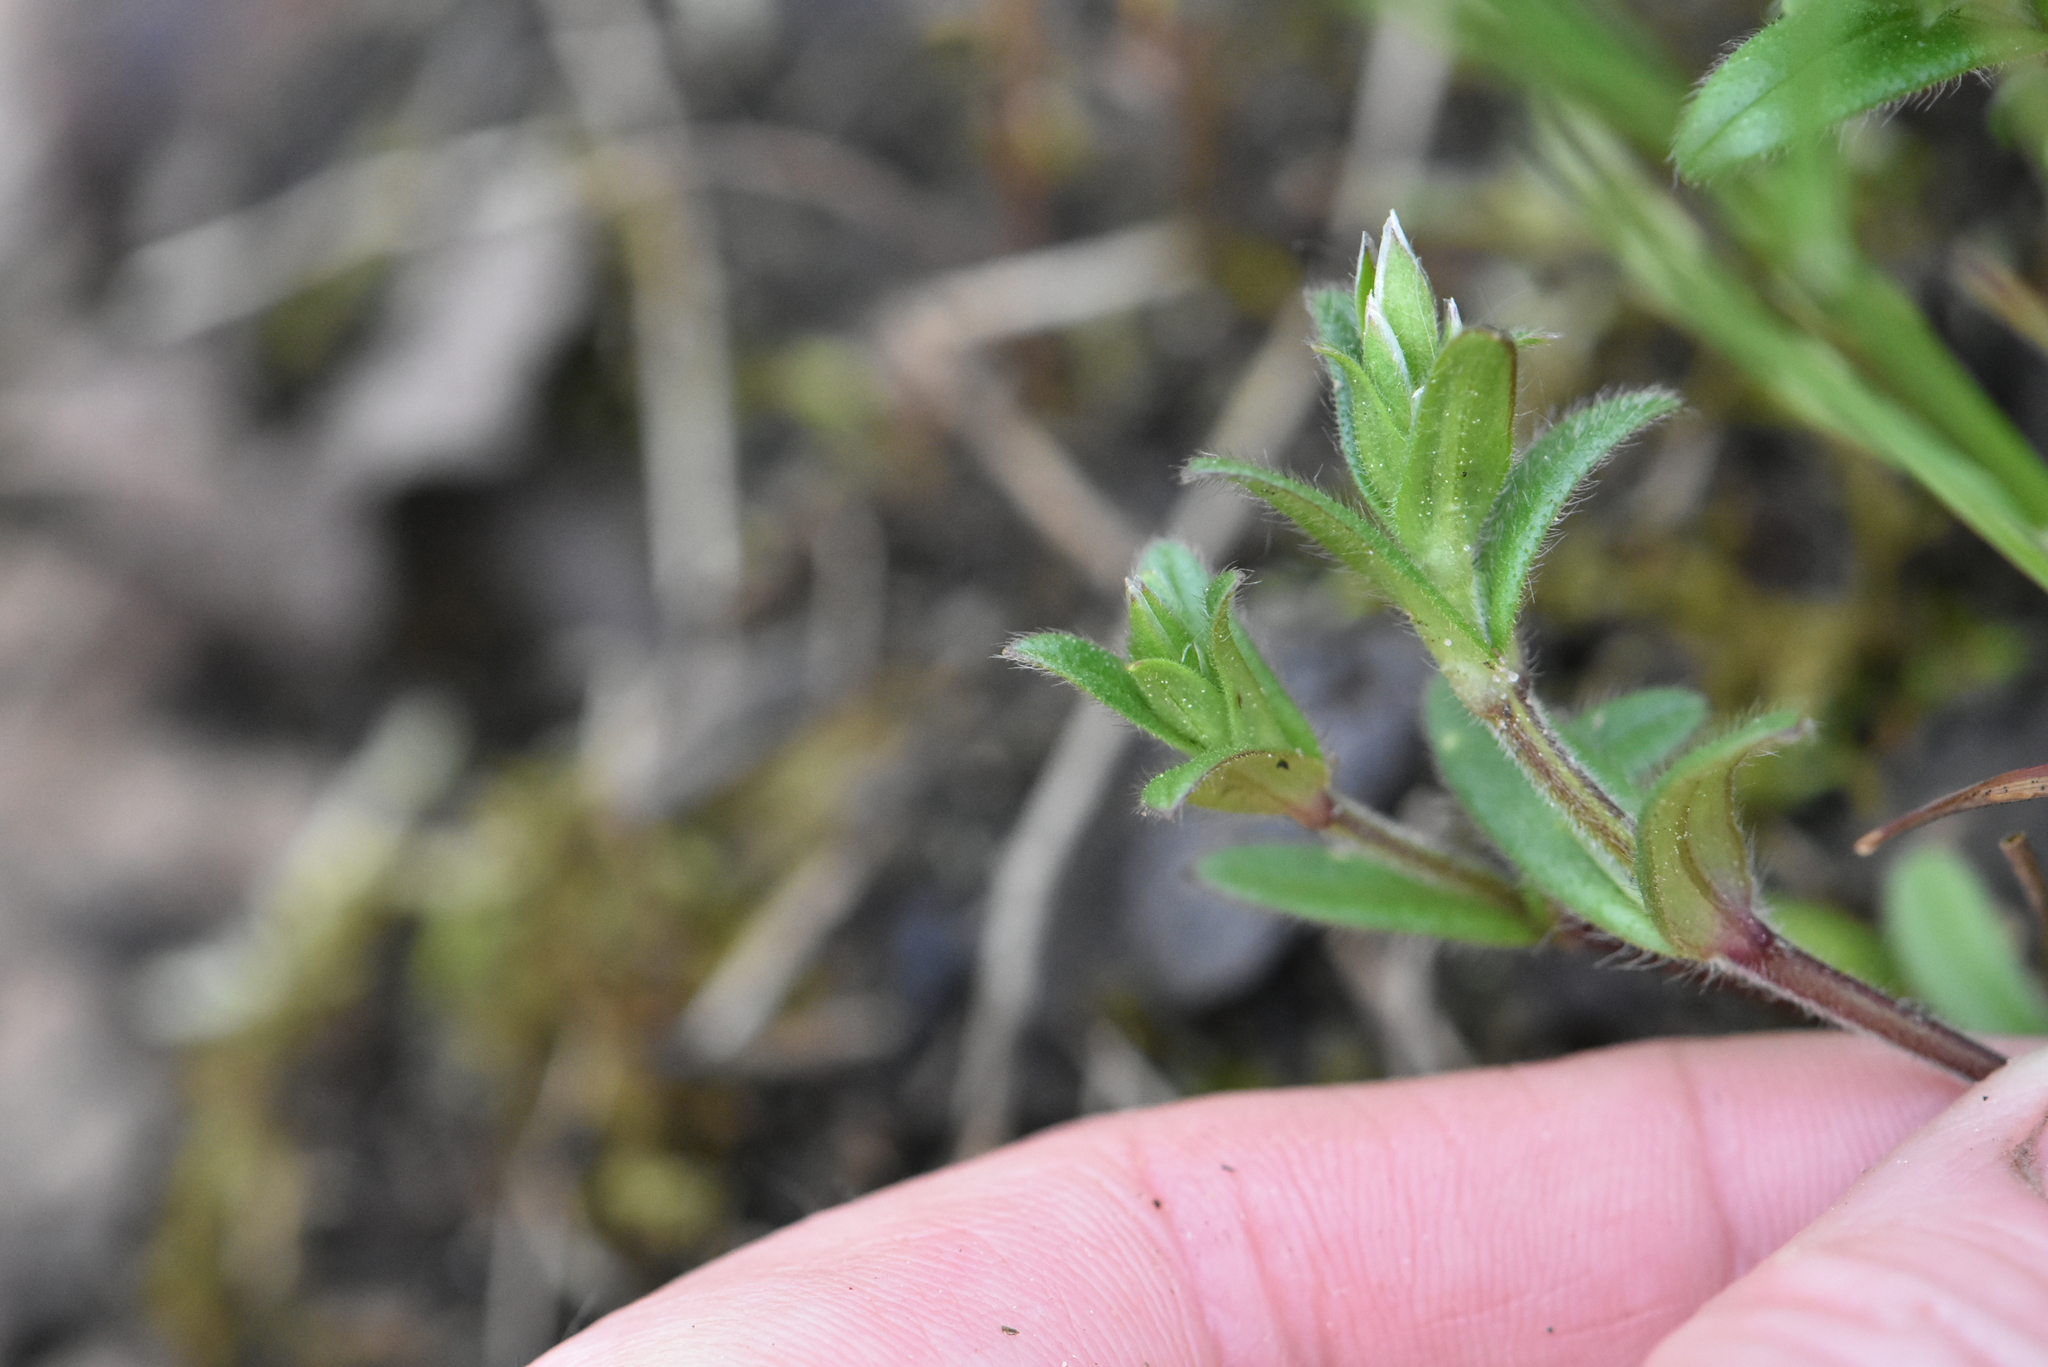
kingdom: Plantae
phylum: Tracheophyta
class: Magnoliopsida
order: Caryophyllales
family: Caryophyllaceae
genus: Cerastium
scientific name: Cerastium holosteoides
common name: Big chickweed
